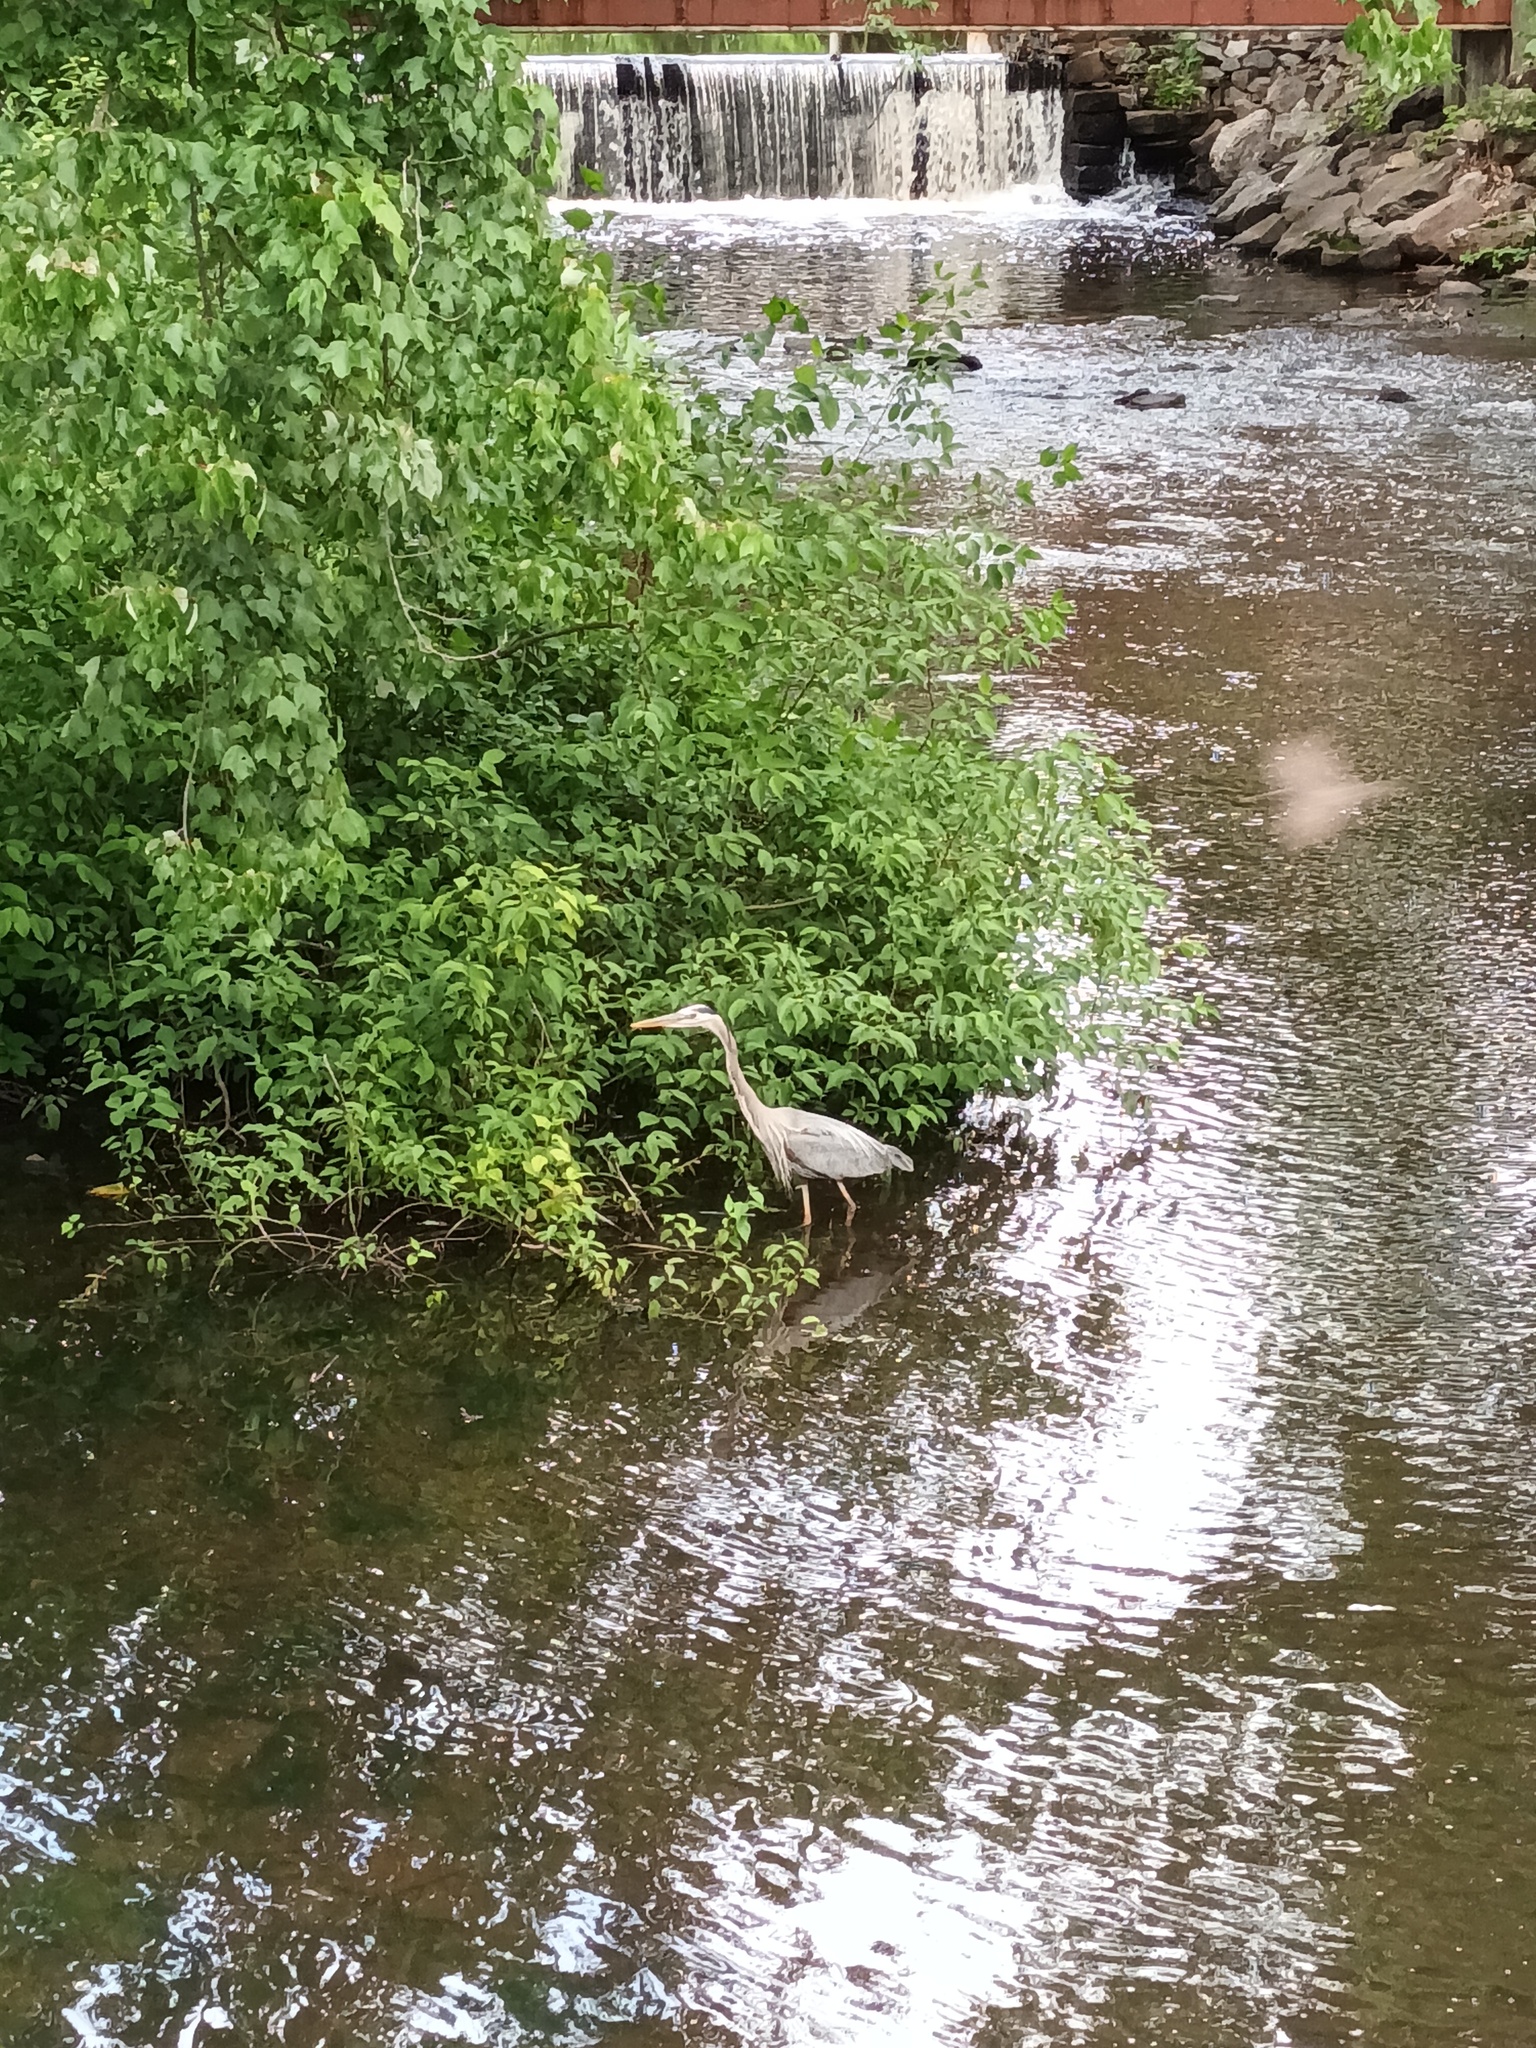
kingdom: Animalia
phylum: Chordata
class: Aves
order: Pelecaniformes
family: Ardeidae
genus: Ardea
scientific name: Ardea herodias
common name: Great blue heron
